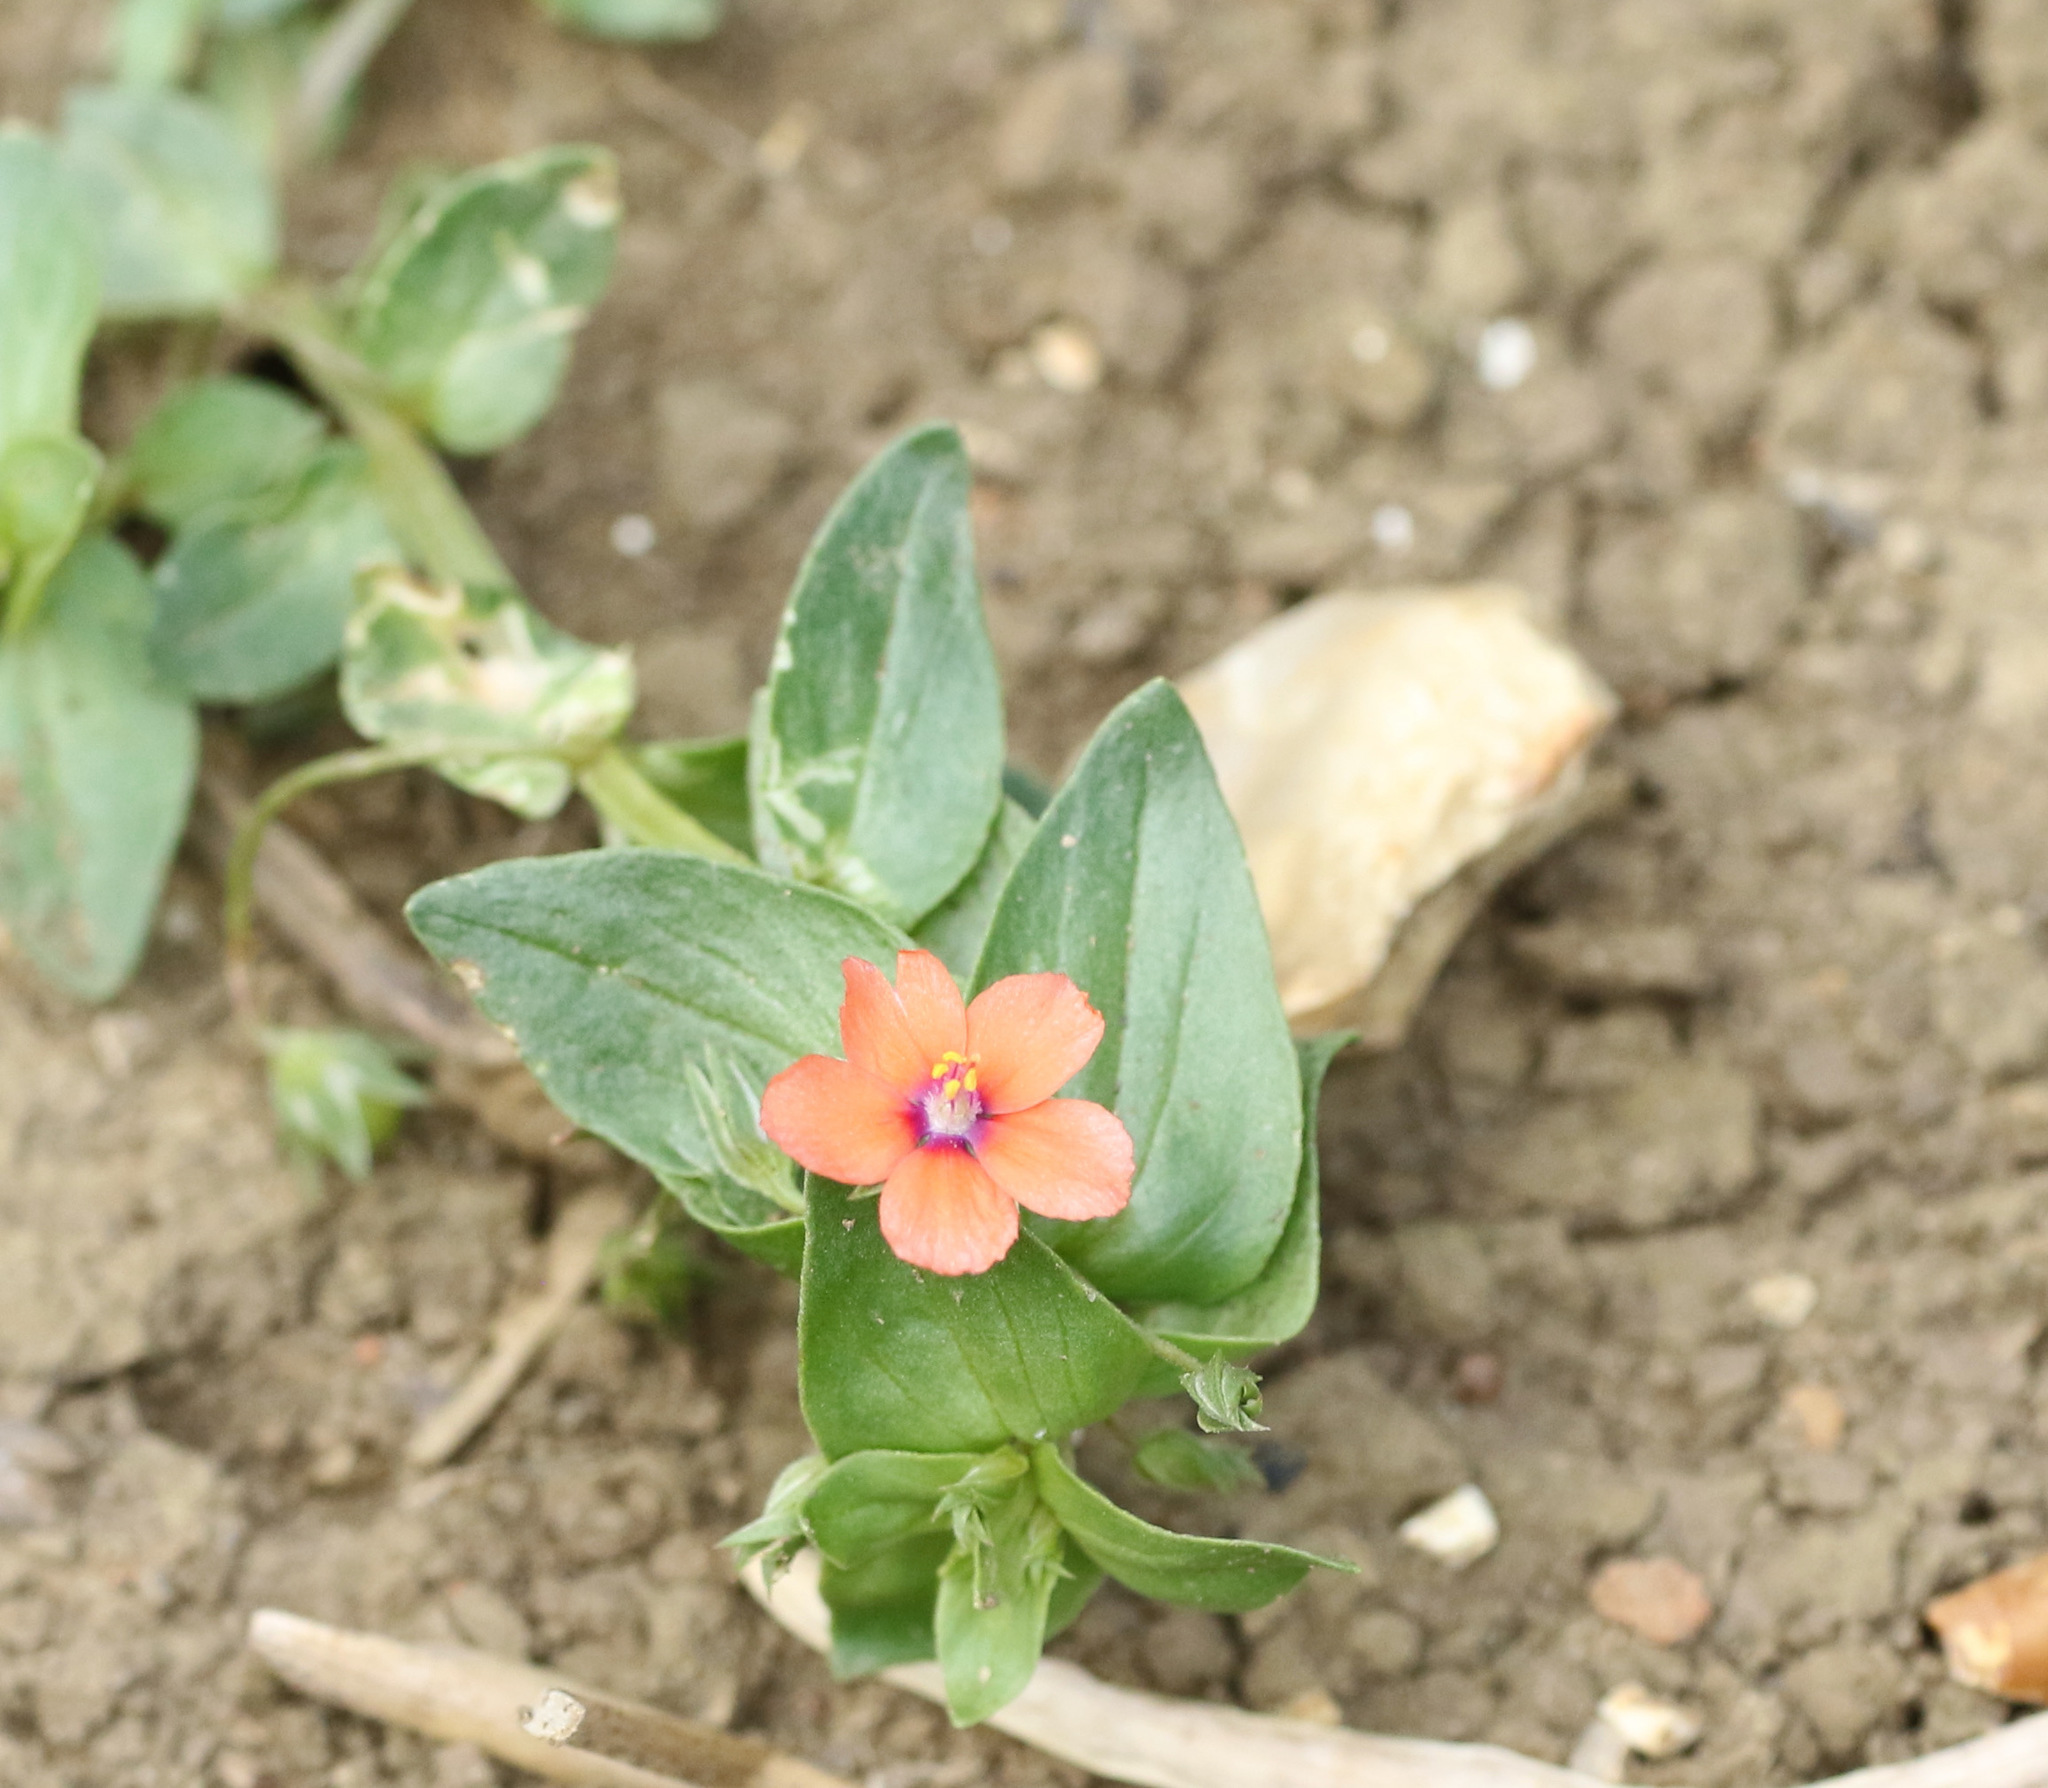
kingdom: Plantae
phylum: Tracheophyta
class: Magnoliopsida
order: Ericales
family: Primulaceae
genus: Lysimachia
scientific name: Lysimachia arvensis
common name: Scarlet pimpernel
